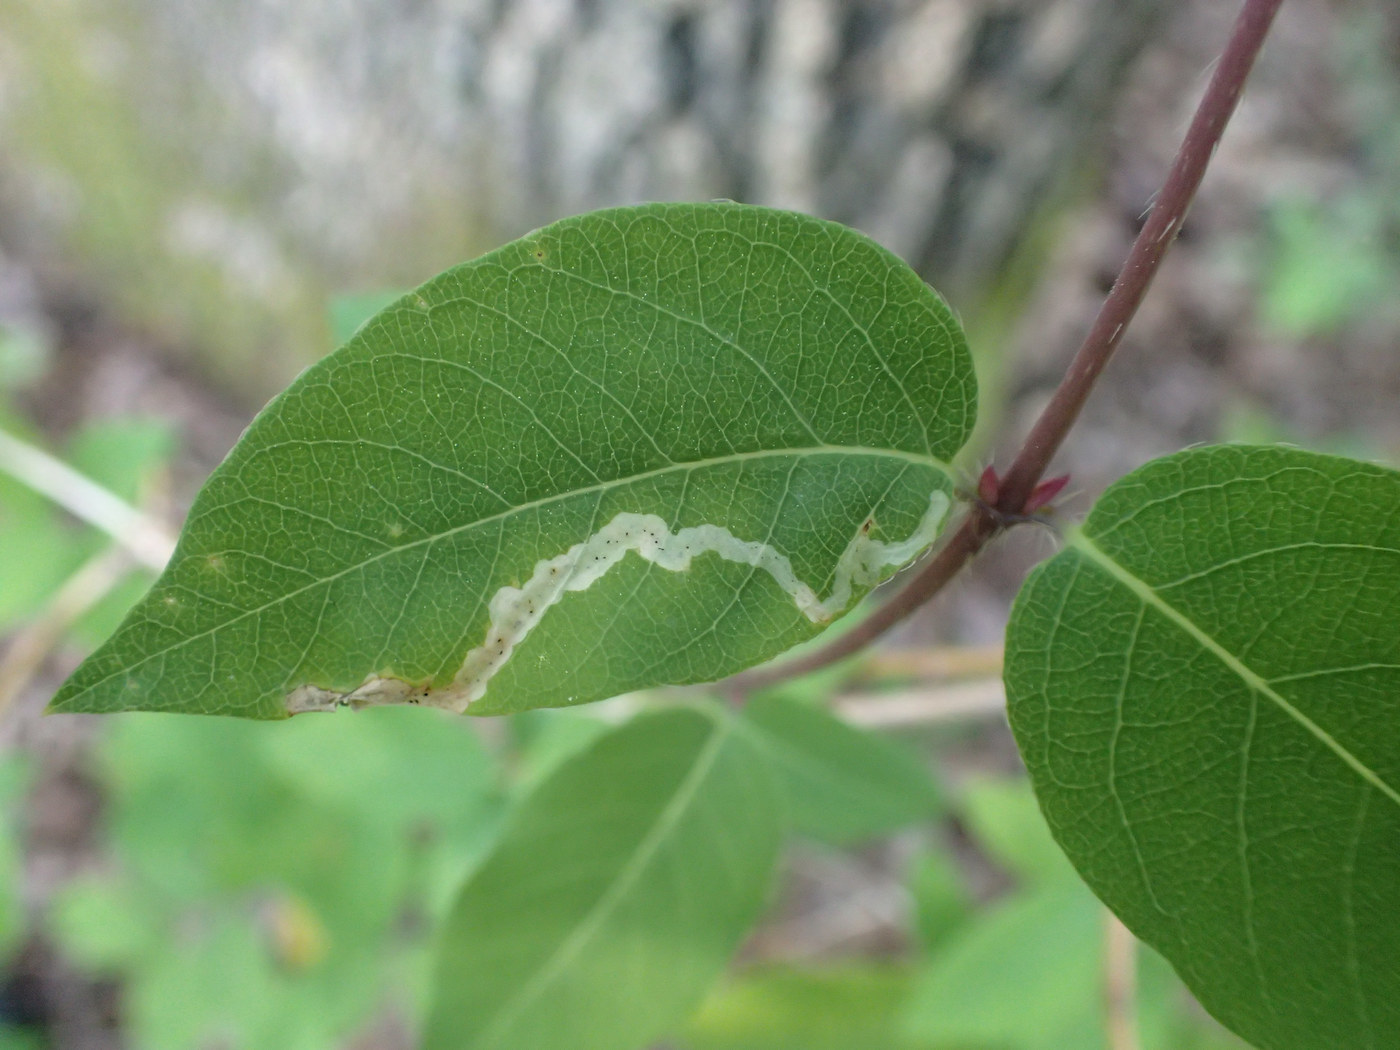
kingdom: Animalia
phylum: Arthropoda
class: Insecta
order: Diptera
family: Agromyzidae
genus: Aulagromyza
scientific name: Aulagromyza cornigera
